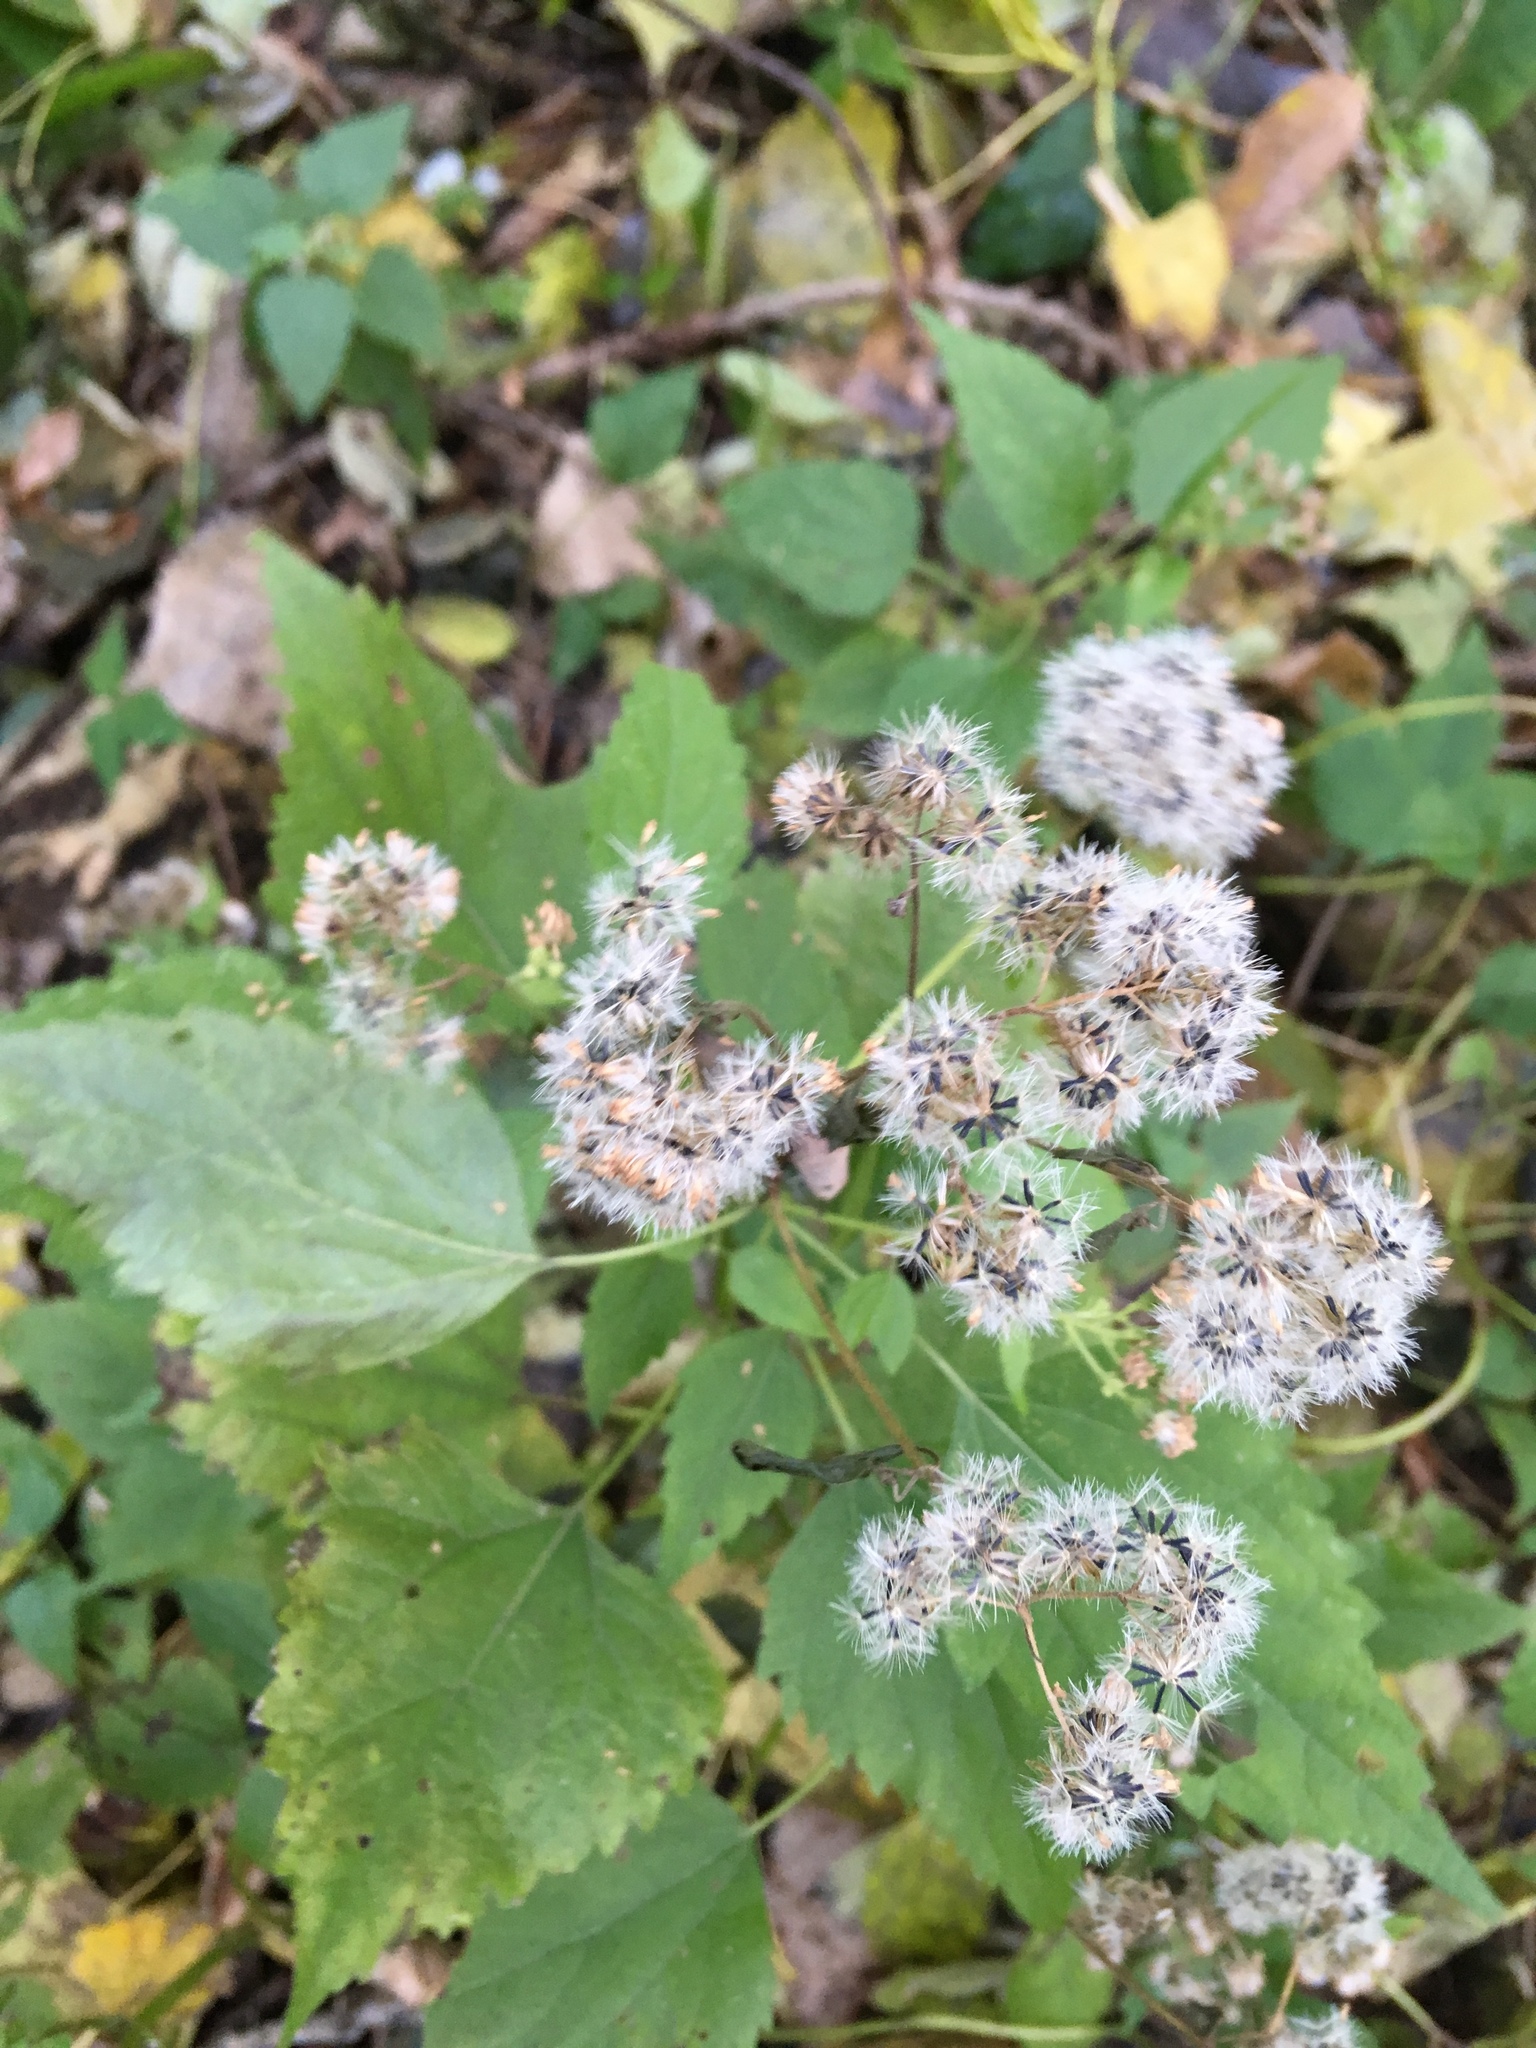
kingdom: Plantae
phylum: Tracheophyta
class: Magnoliopsida
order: Asterales
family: Asteraceae
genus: Ageratina
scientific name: Ageratina altissima
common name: White snakeroot
